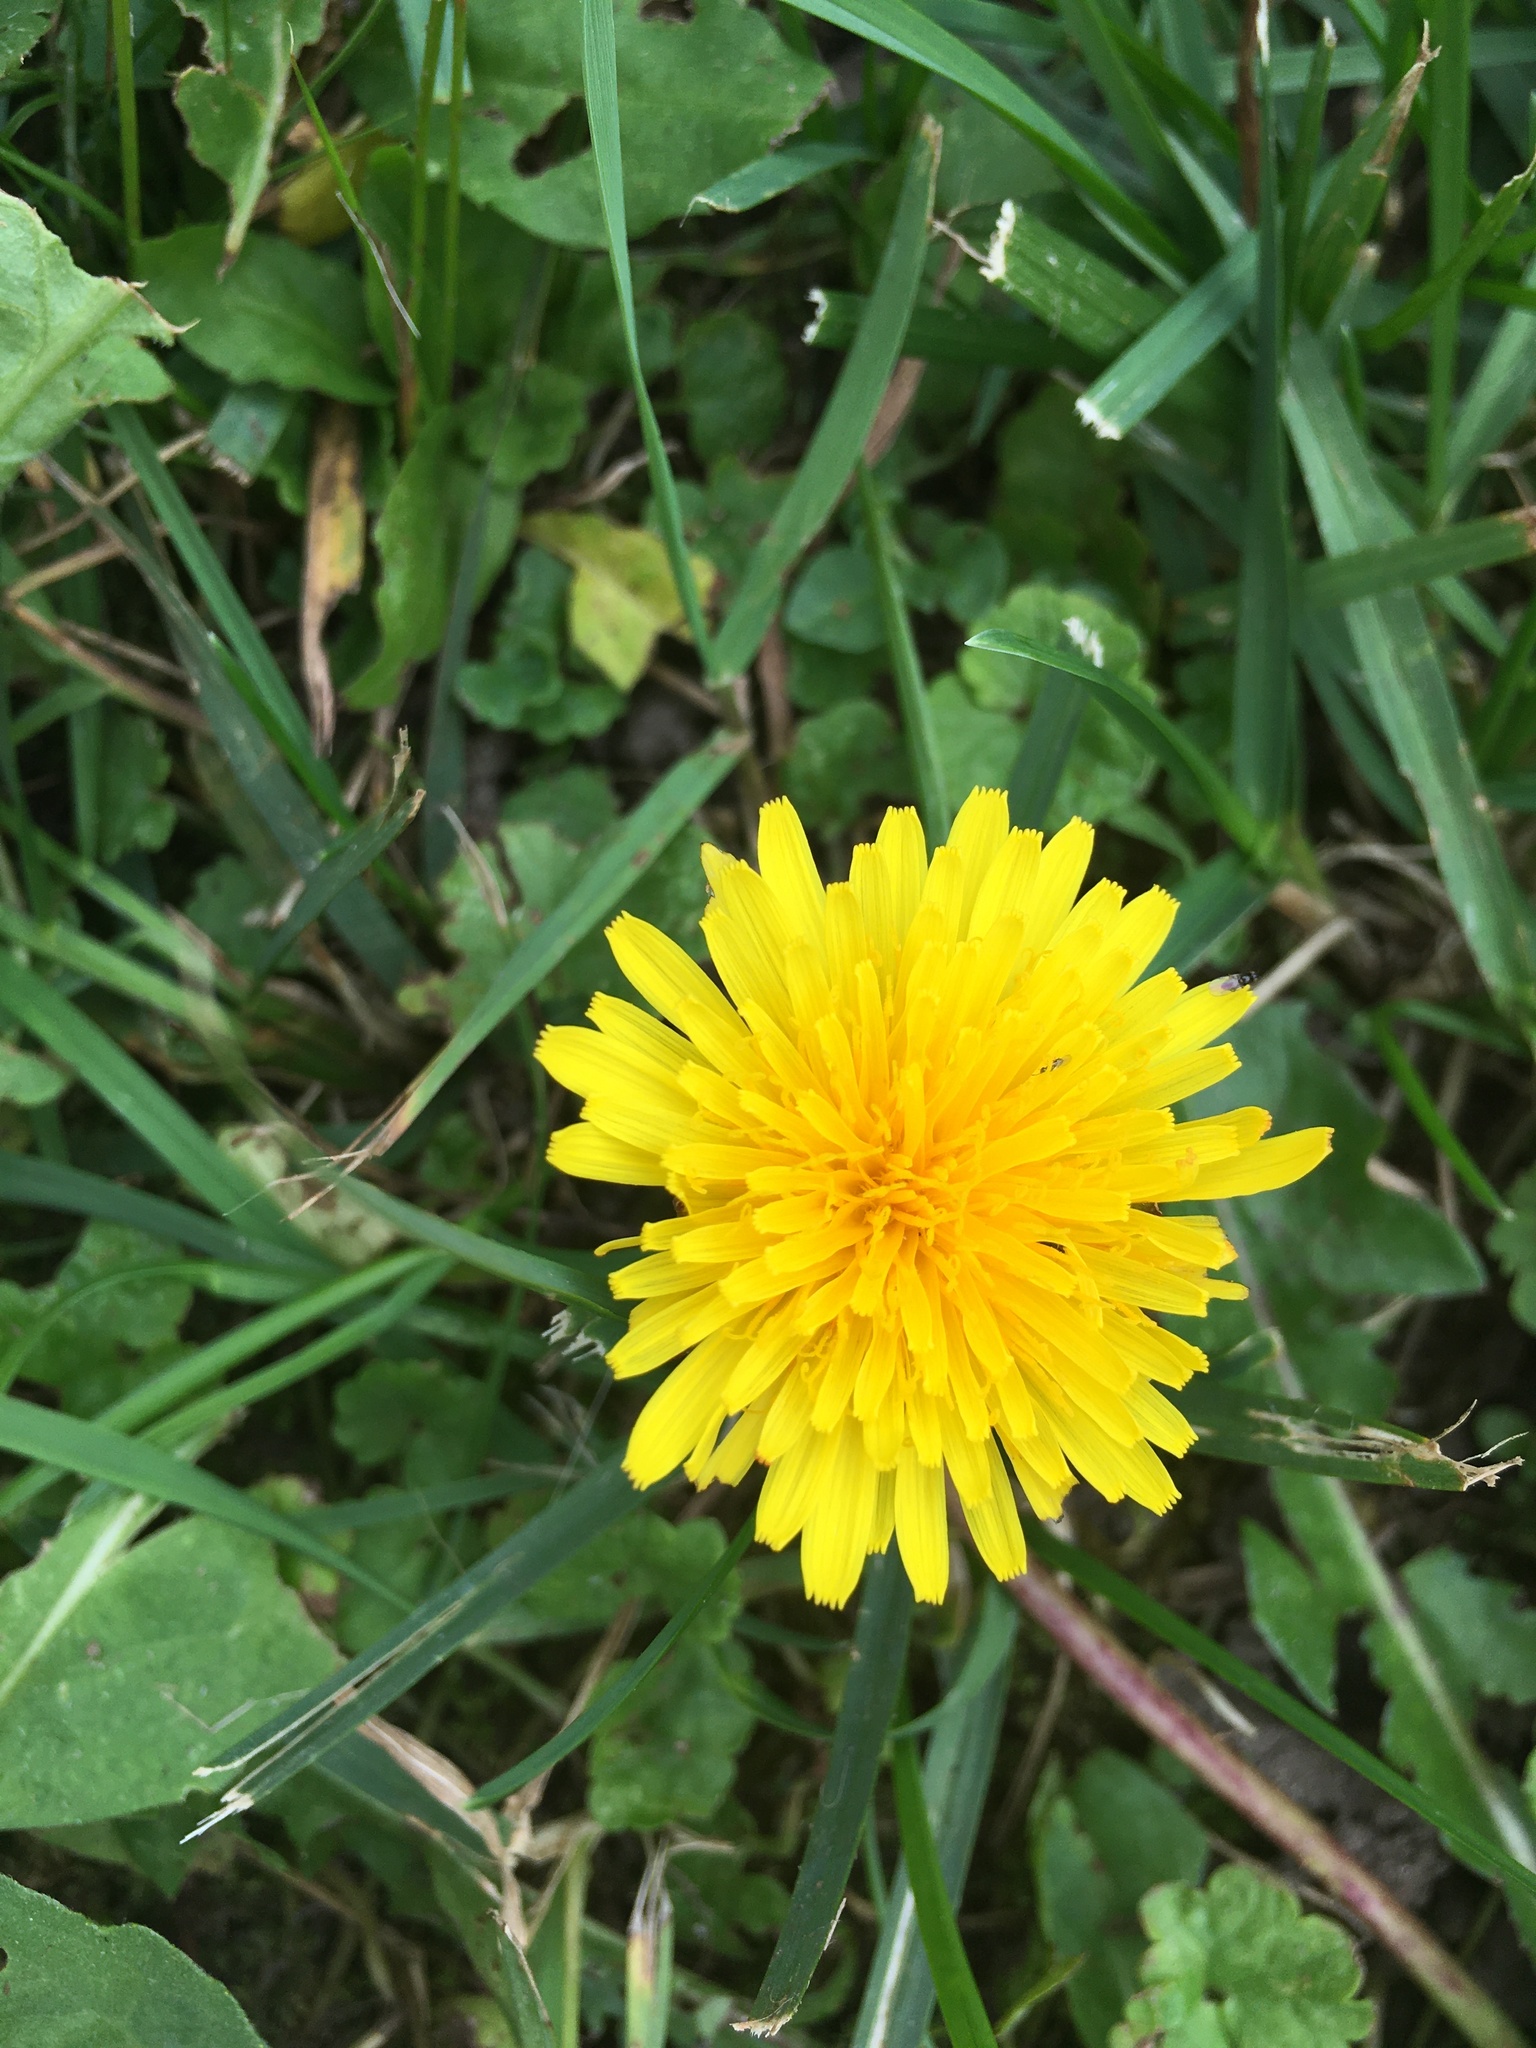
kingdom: Plantae
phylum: Tracheophyta
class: Magnoliopsida
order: Asterales
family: Asteraceae
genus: Taraxacum
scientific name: Taraxacum officinale
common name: Common dandelion
